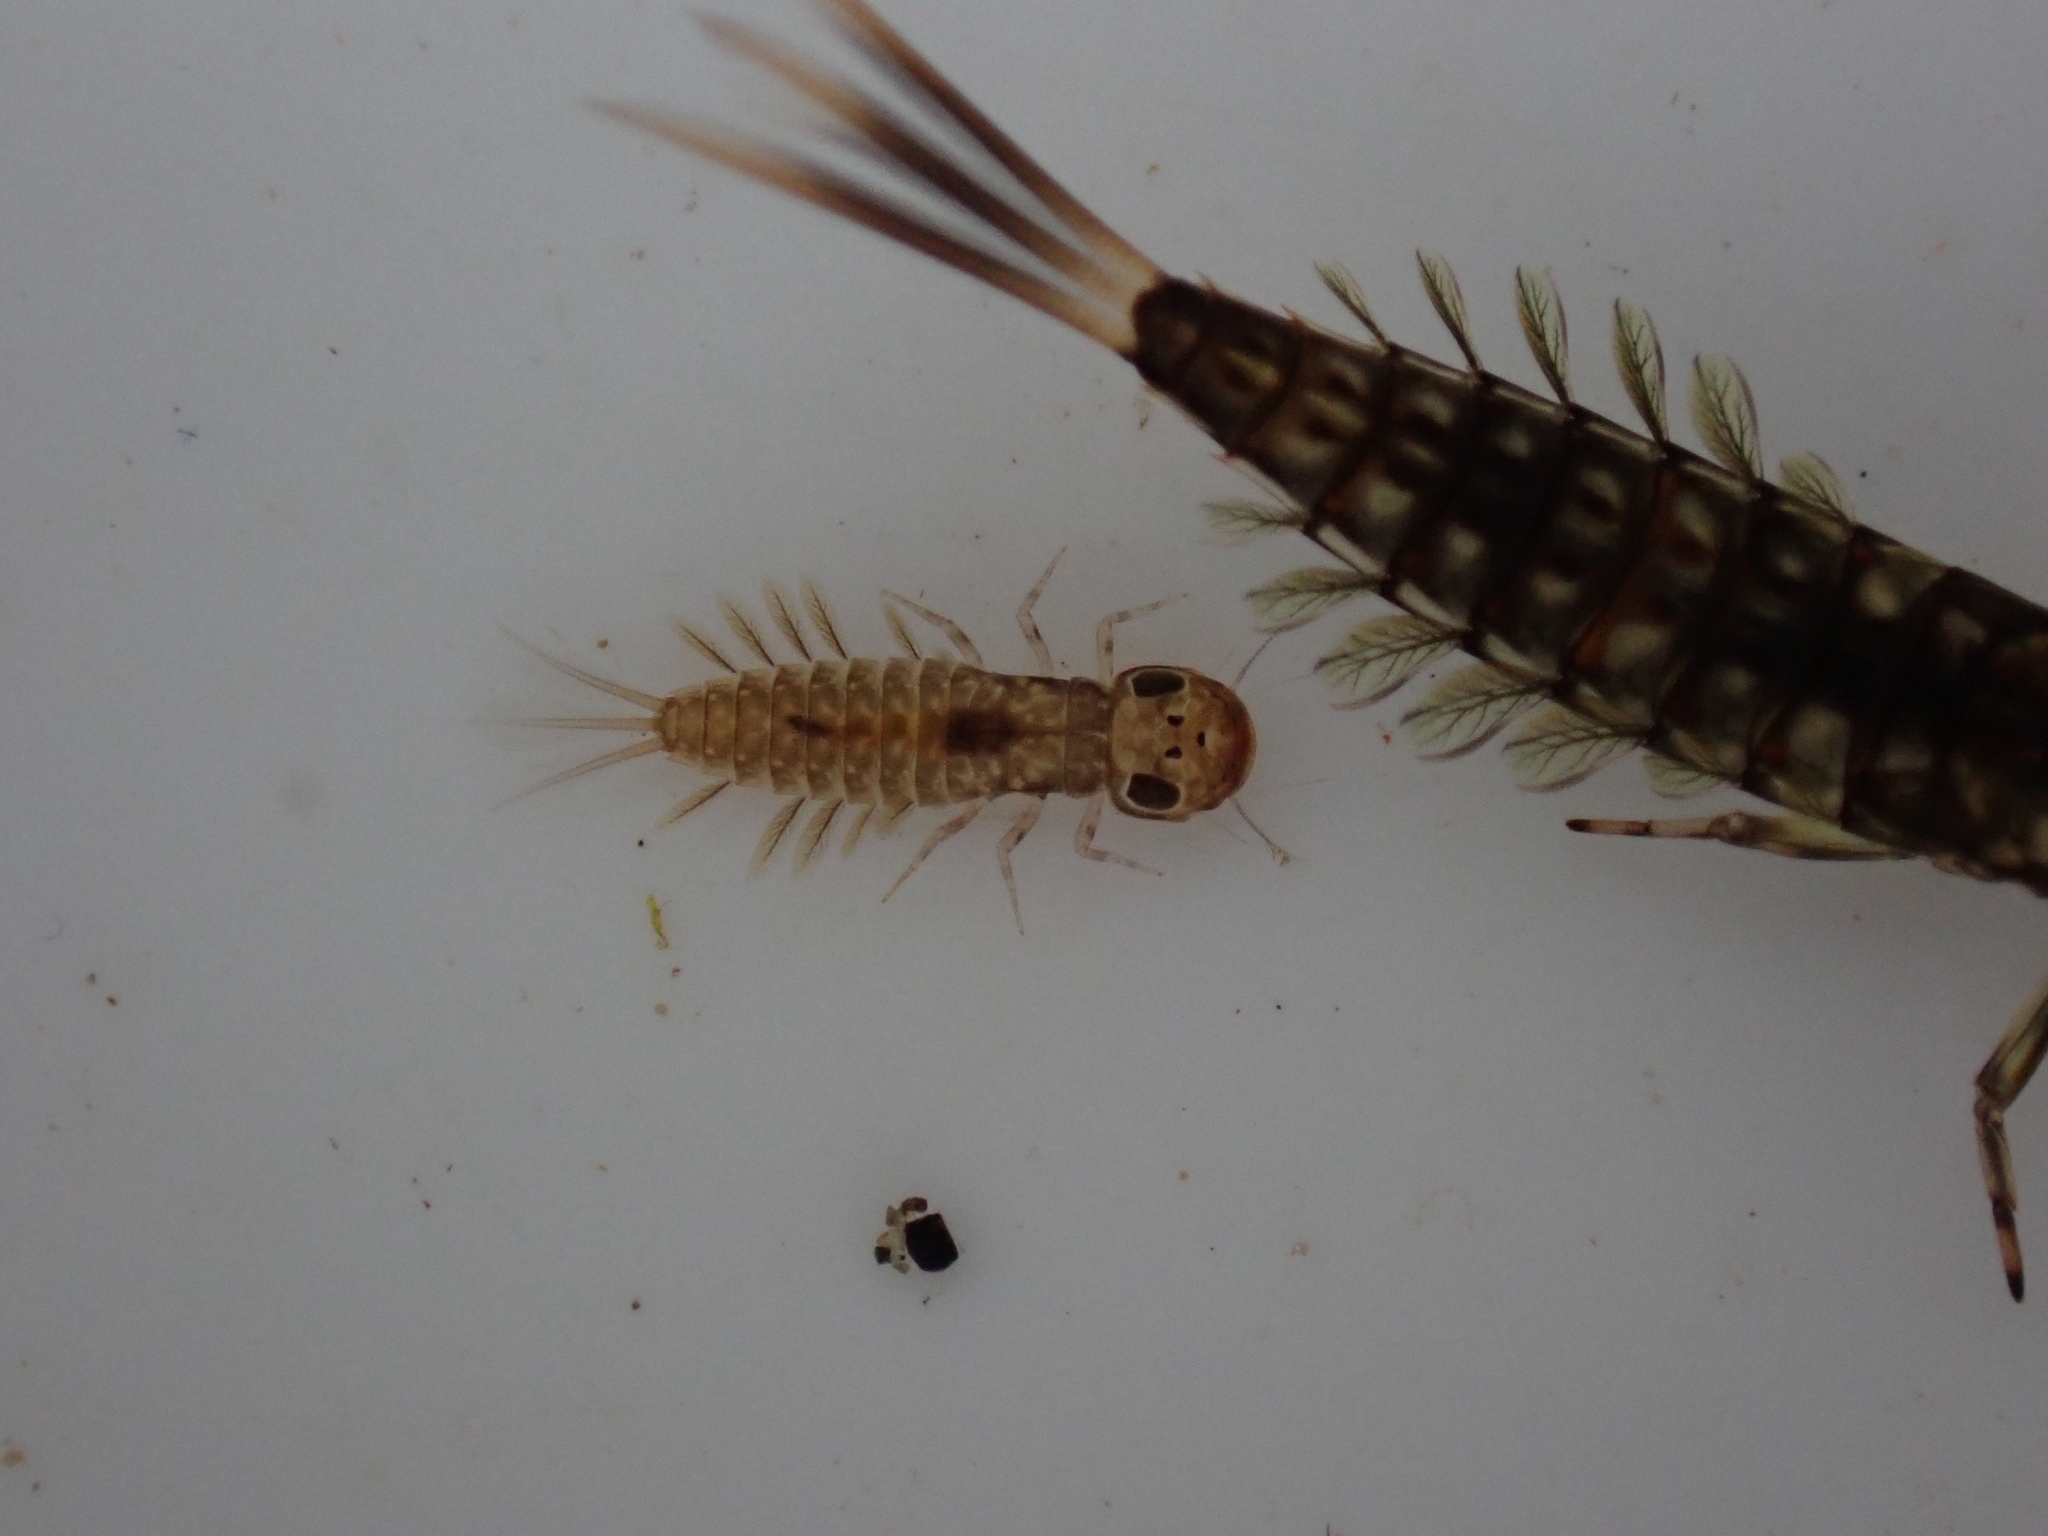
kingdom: Animalia
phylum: Arthropoda
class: Insecta
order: Ephemeroptera
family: Ameletopsidae
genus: Ameletopsis
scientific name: Ameletopsis perscitus
